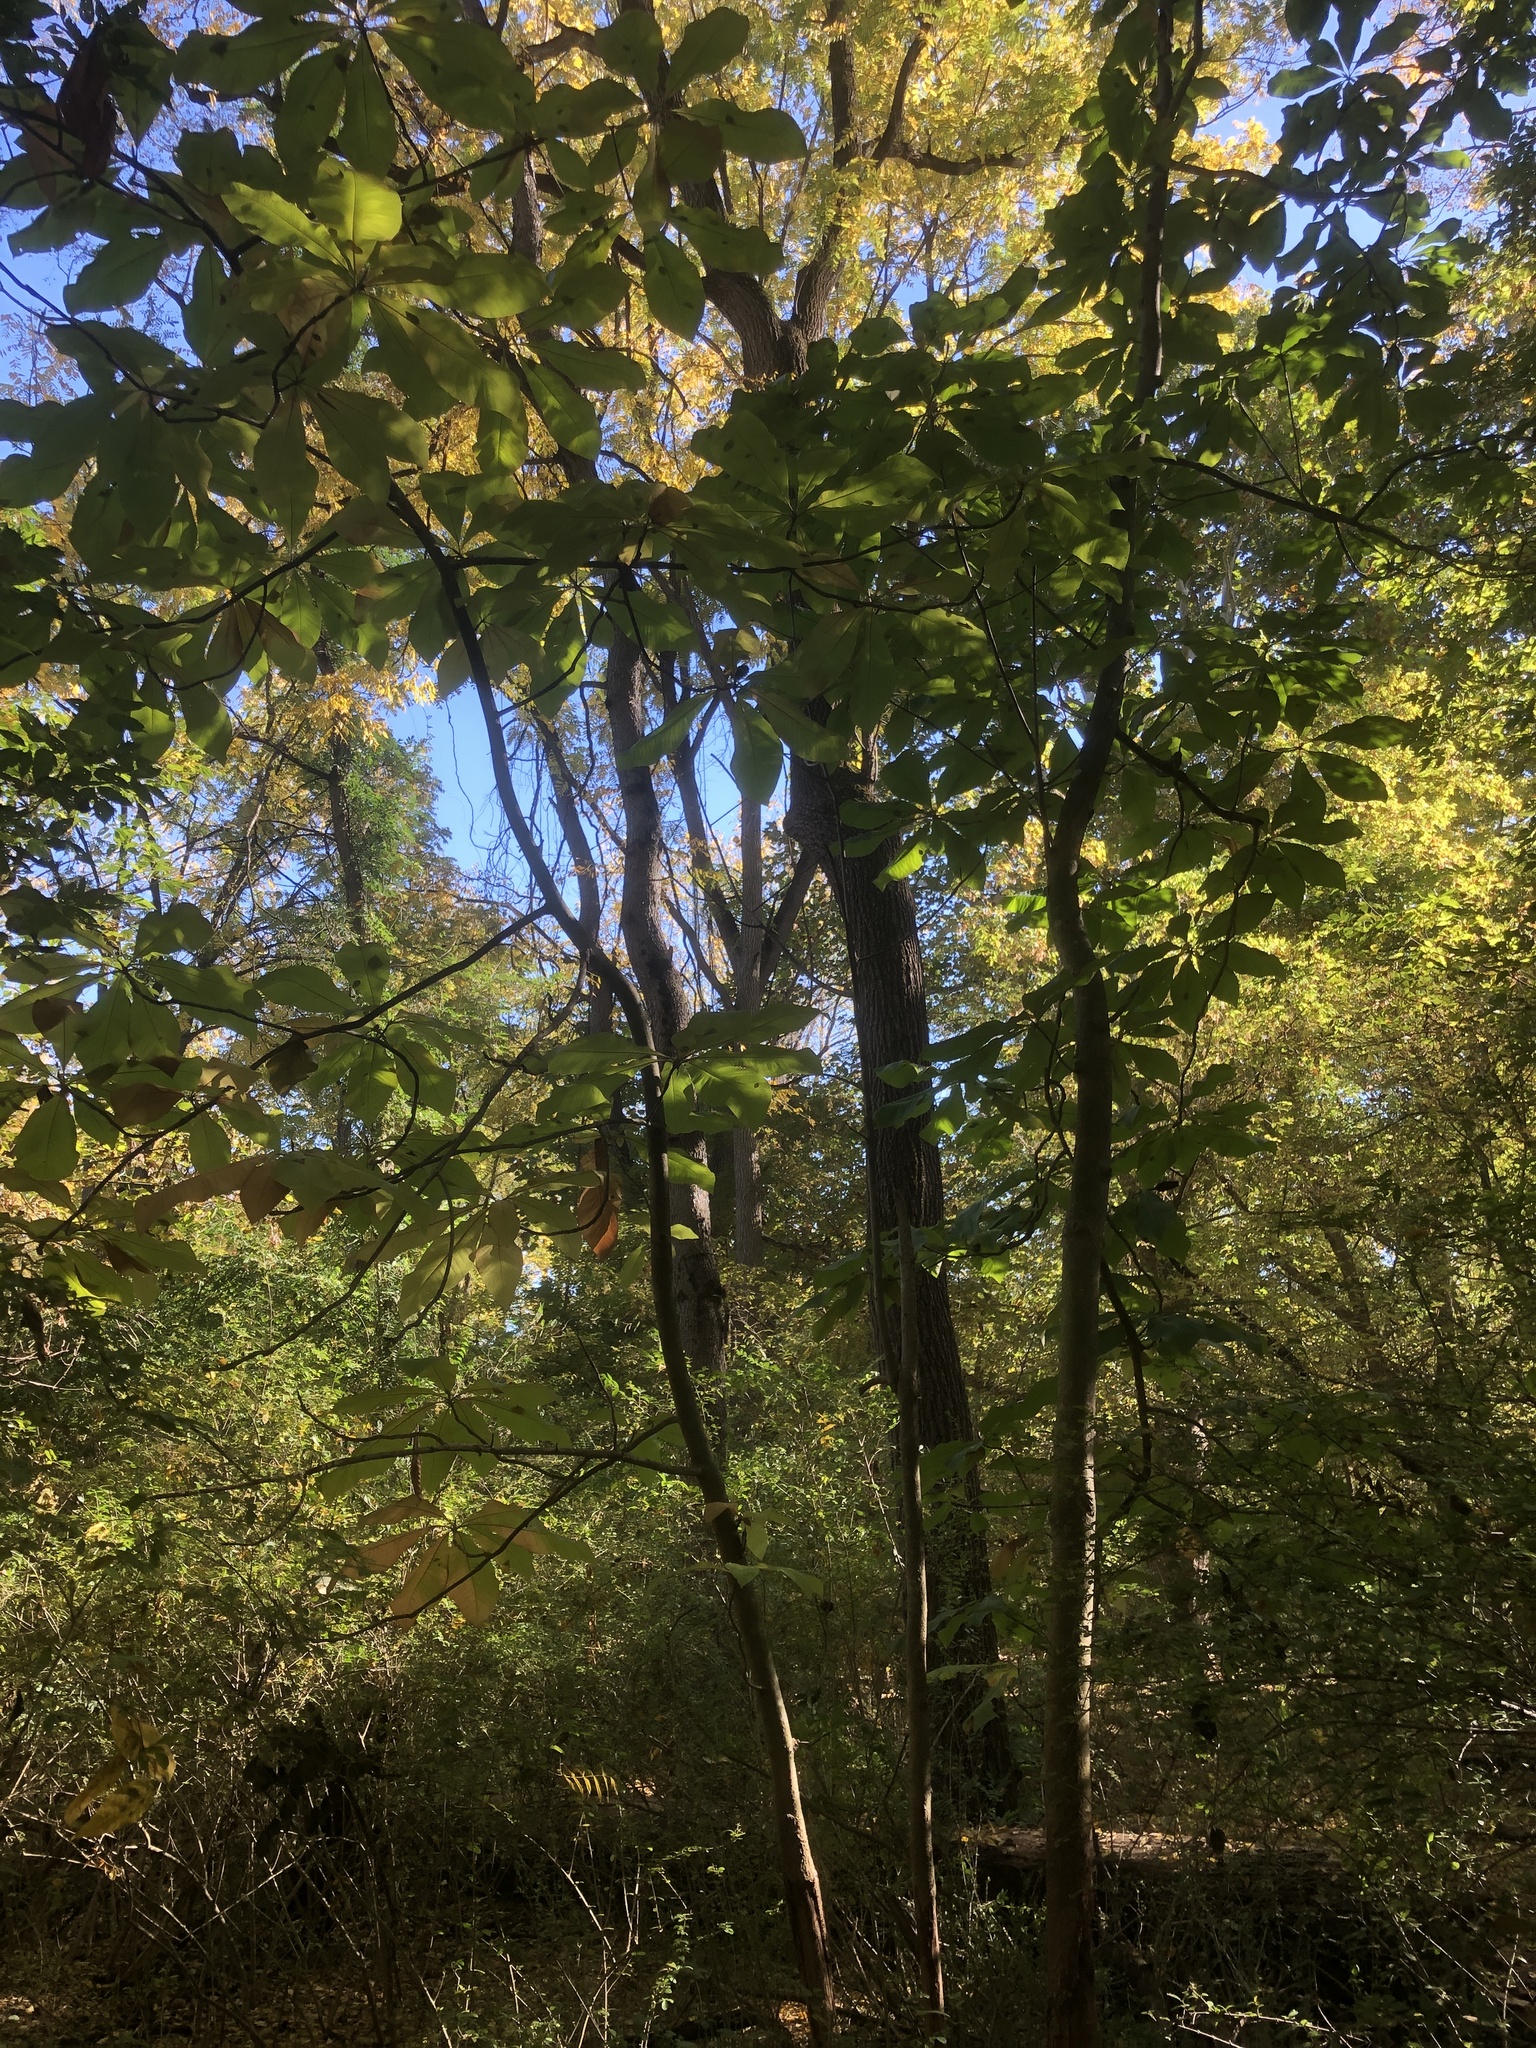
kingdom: Plantae
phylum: Tracheophyta
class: Magnoliopsida
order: Magnoliales
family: Magnoliaceae
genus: Magnolia
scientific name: Magnolia tripetala
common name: Umbrella magnolia
